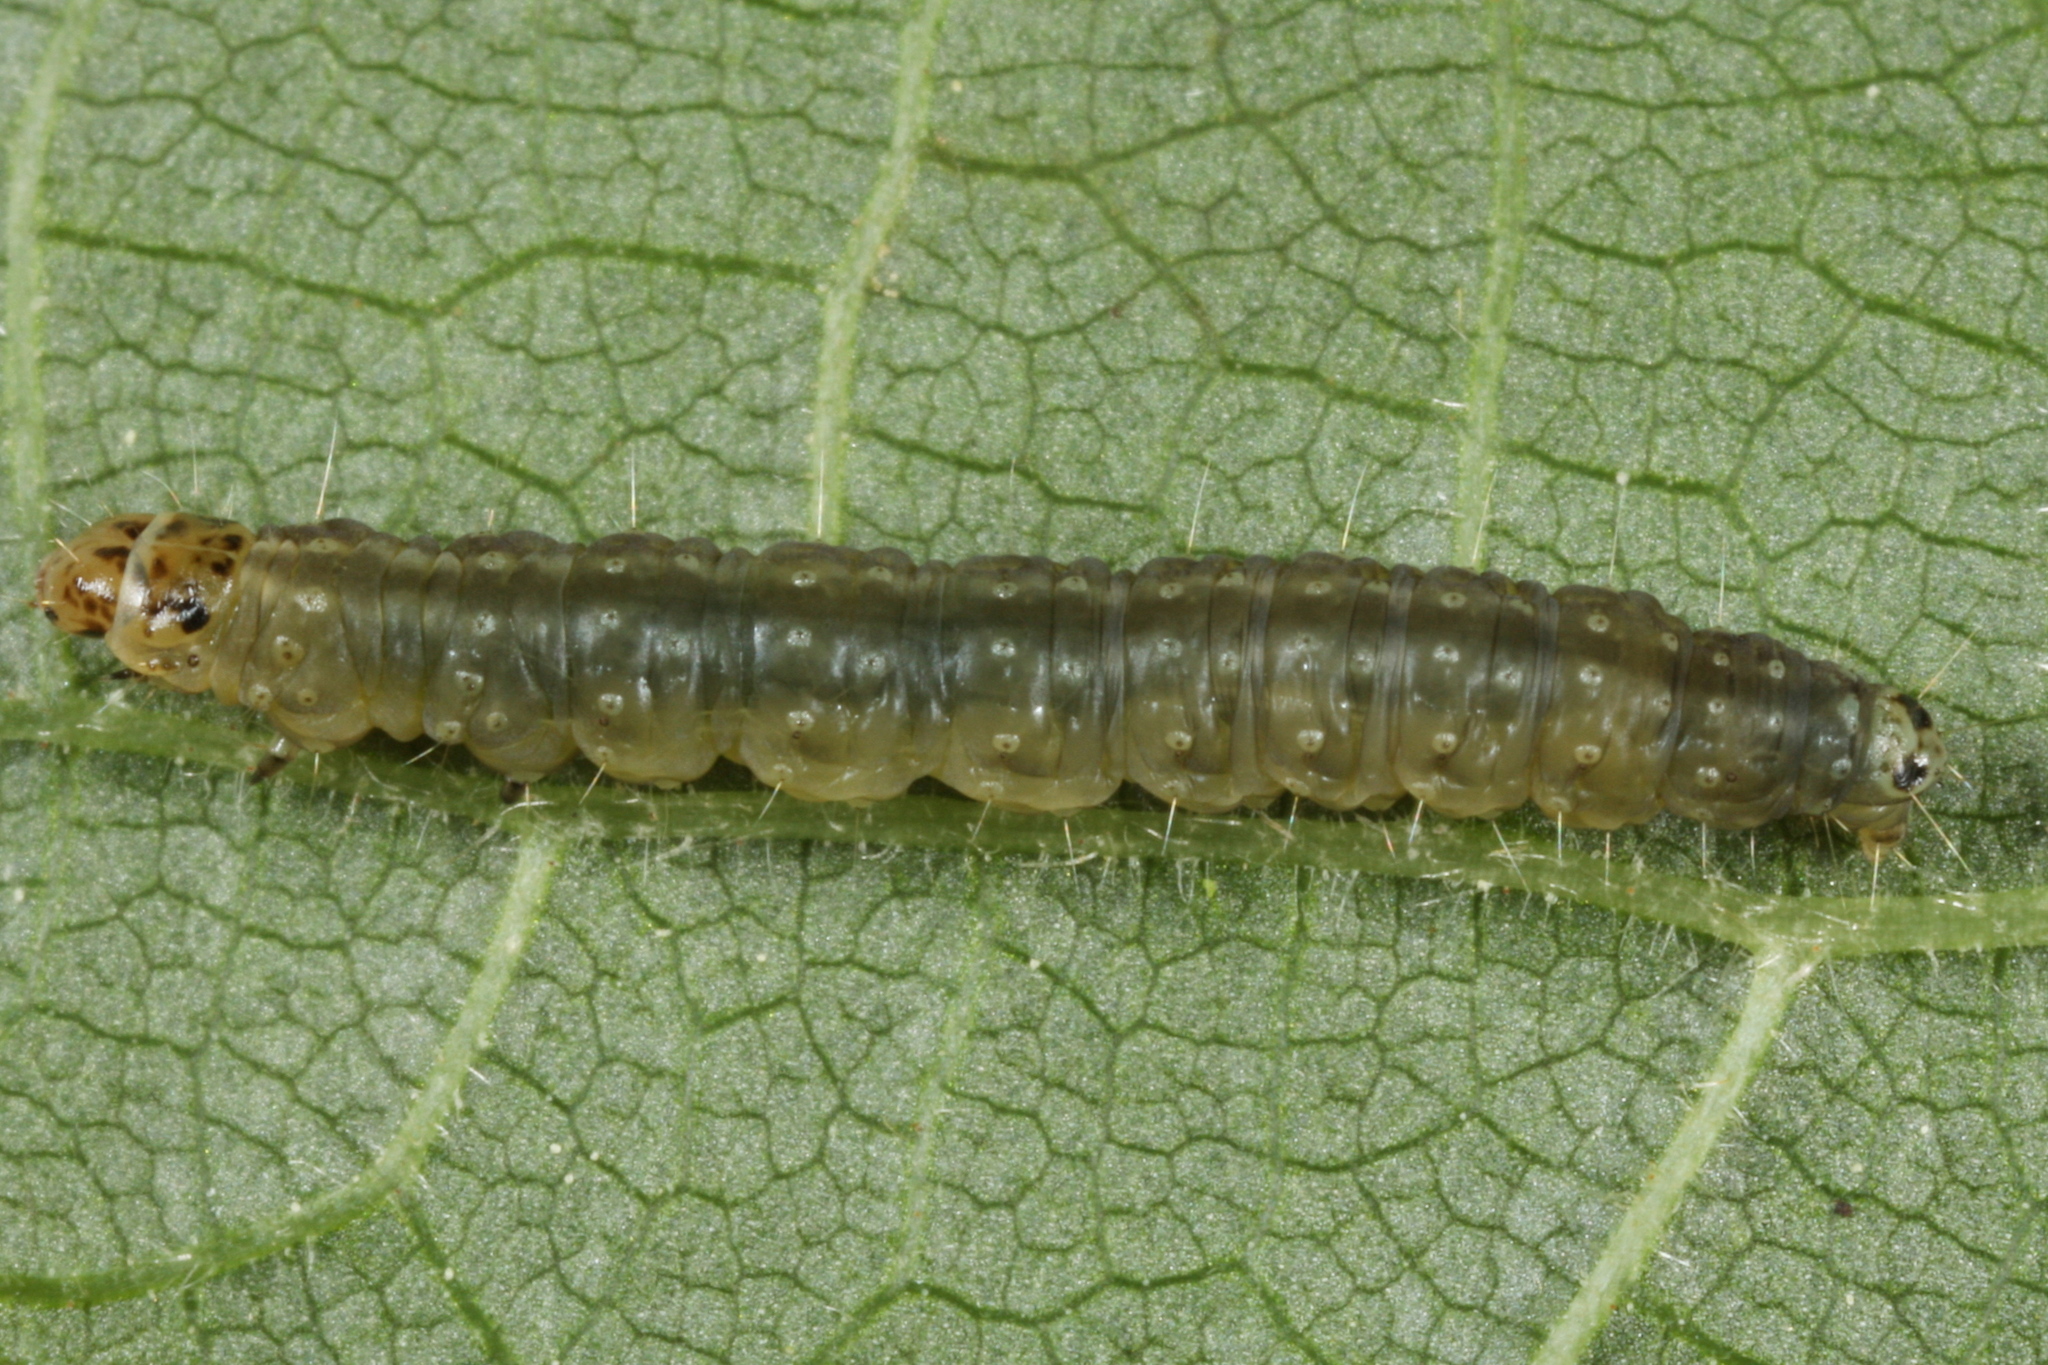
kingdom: Animalia
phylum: Arthropoda
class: Insecta
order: Lepidoptera
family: Tortricidae
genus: Ancylis
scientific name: Ancylis apicella
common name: Hook-tipped roller
